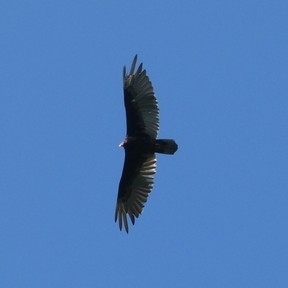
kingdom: Animalia
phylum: Chordata
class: Aves
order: Accipitriformes
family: Cathartidae
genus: Cathartes
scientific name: Cathartes aura
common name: Turkey vulture
